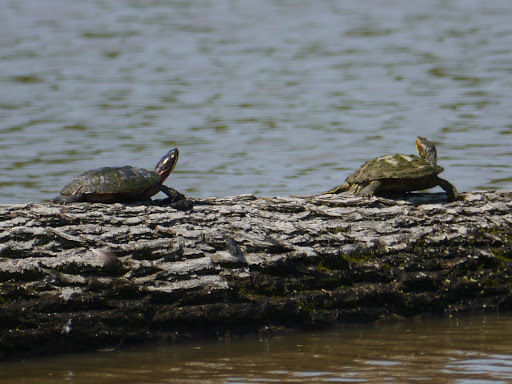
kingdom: Animalia
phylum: Chordata
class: Testudines
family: Emydidae
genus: Chrysemys
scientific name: Chrysemys picta
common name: Painted turtle
